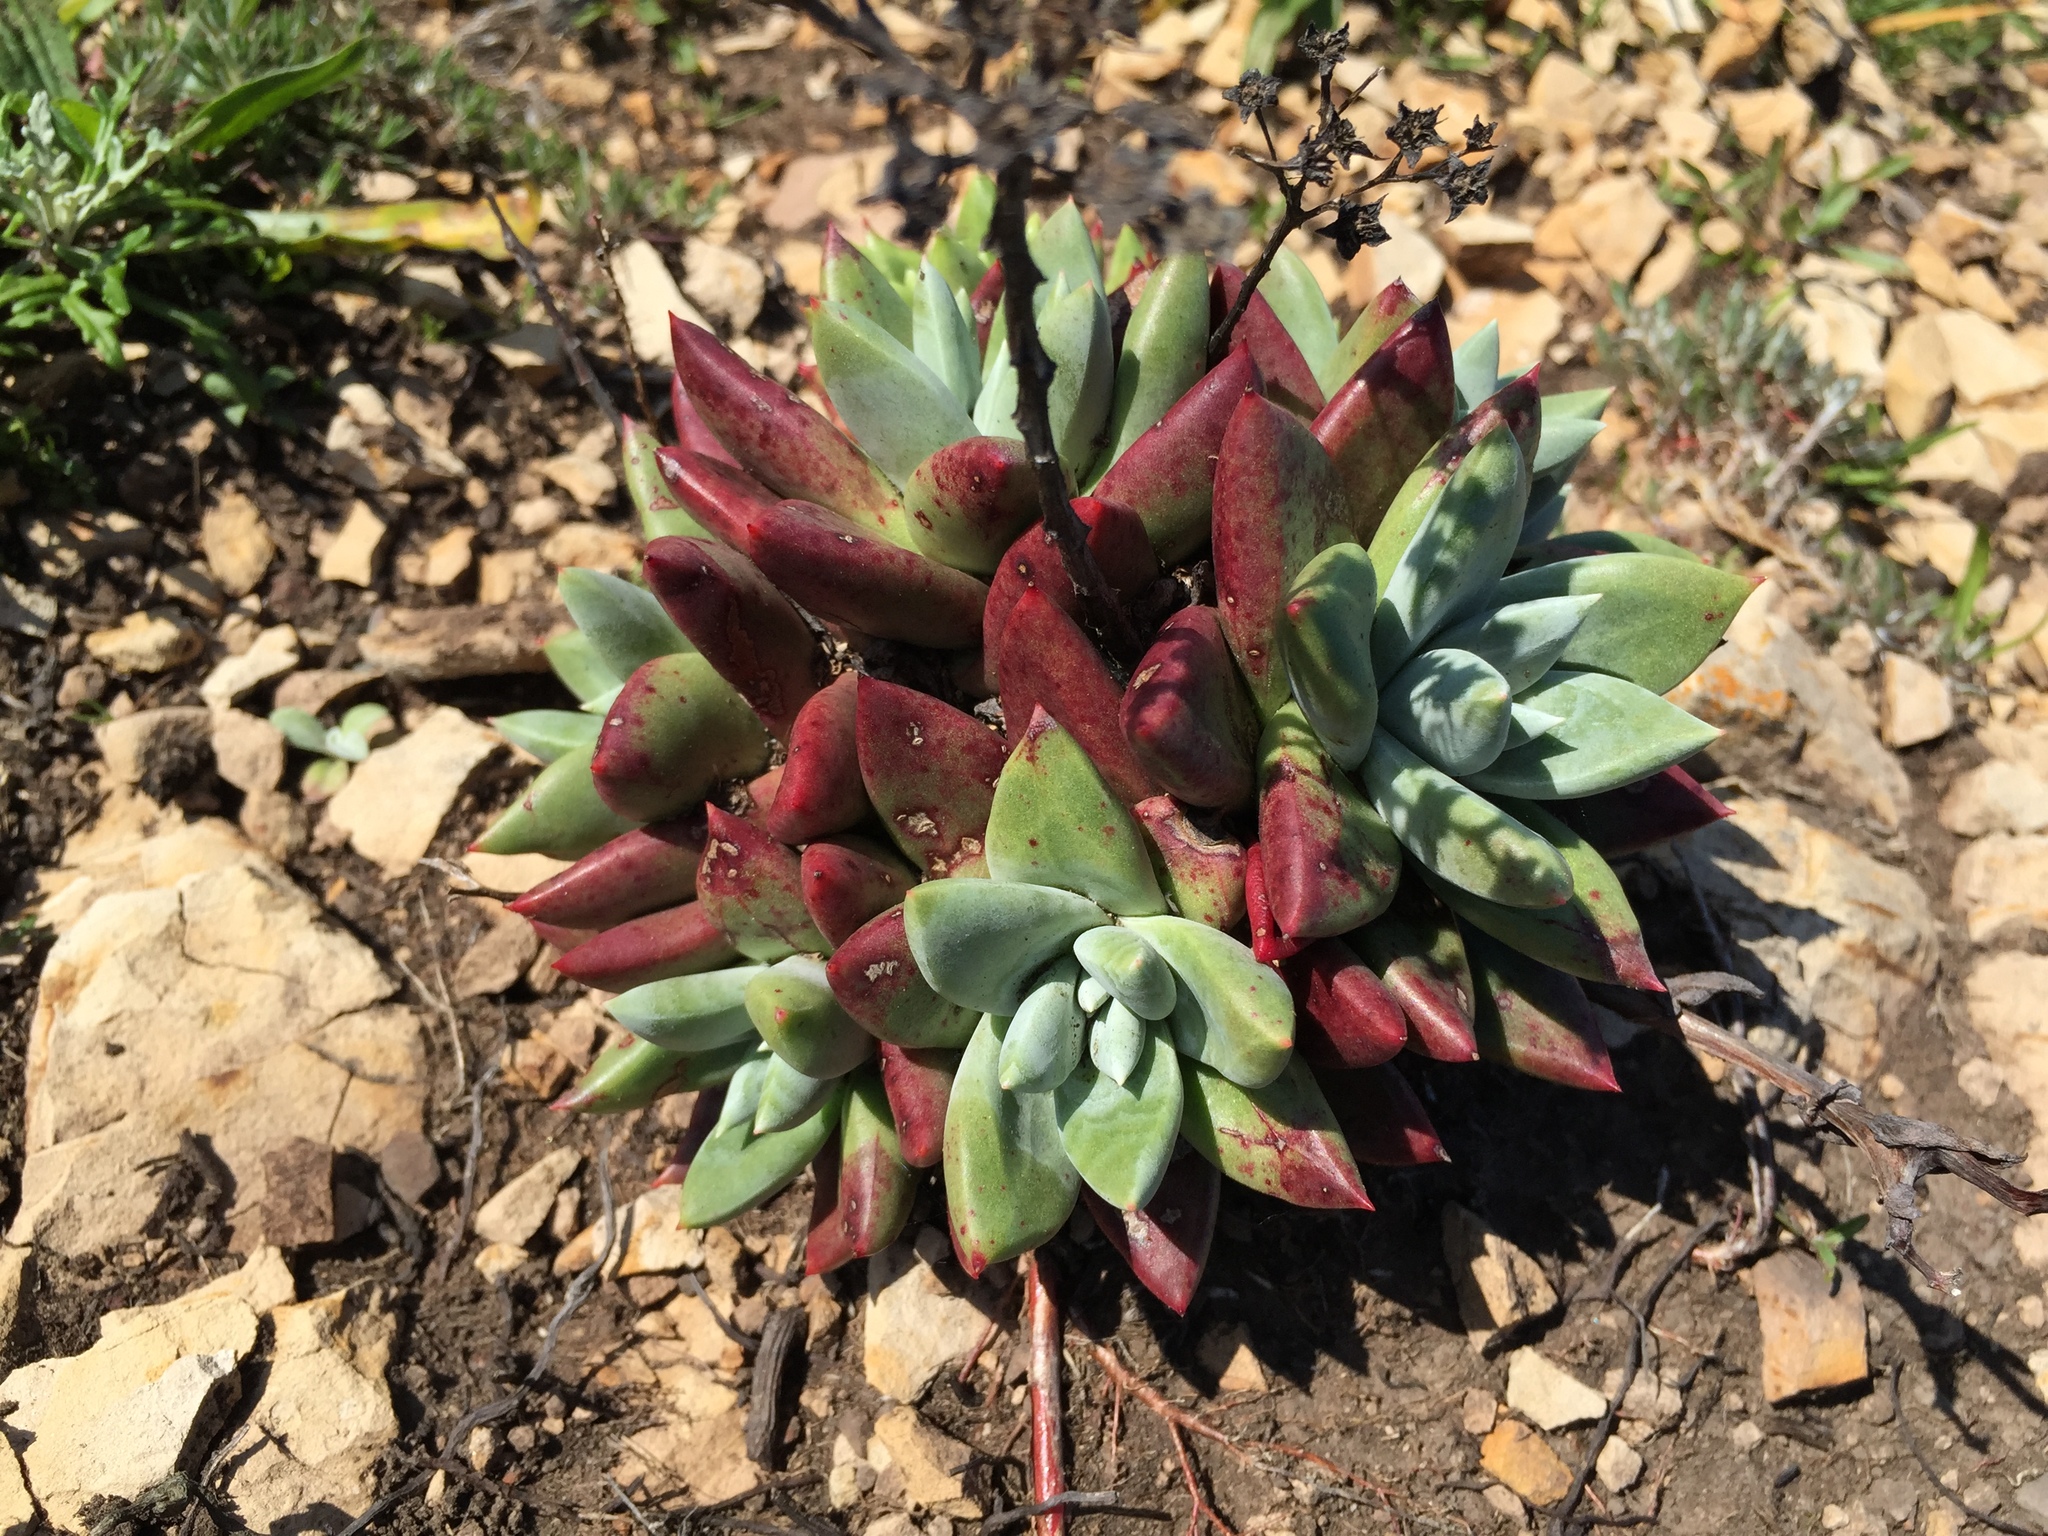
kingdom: Plantae
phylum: Tracheophyta
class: Magnoliopsida
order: Saxifragales
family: Crassulaceae
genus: Dudleya
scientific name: Dudleya farinosa
